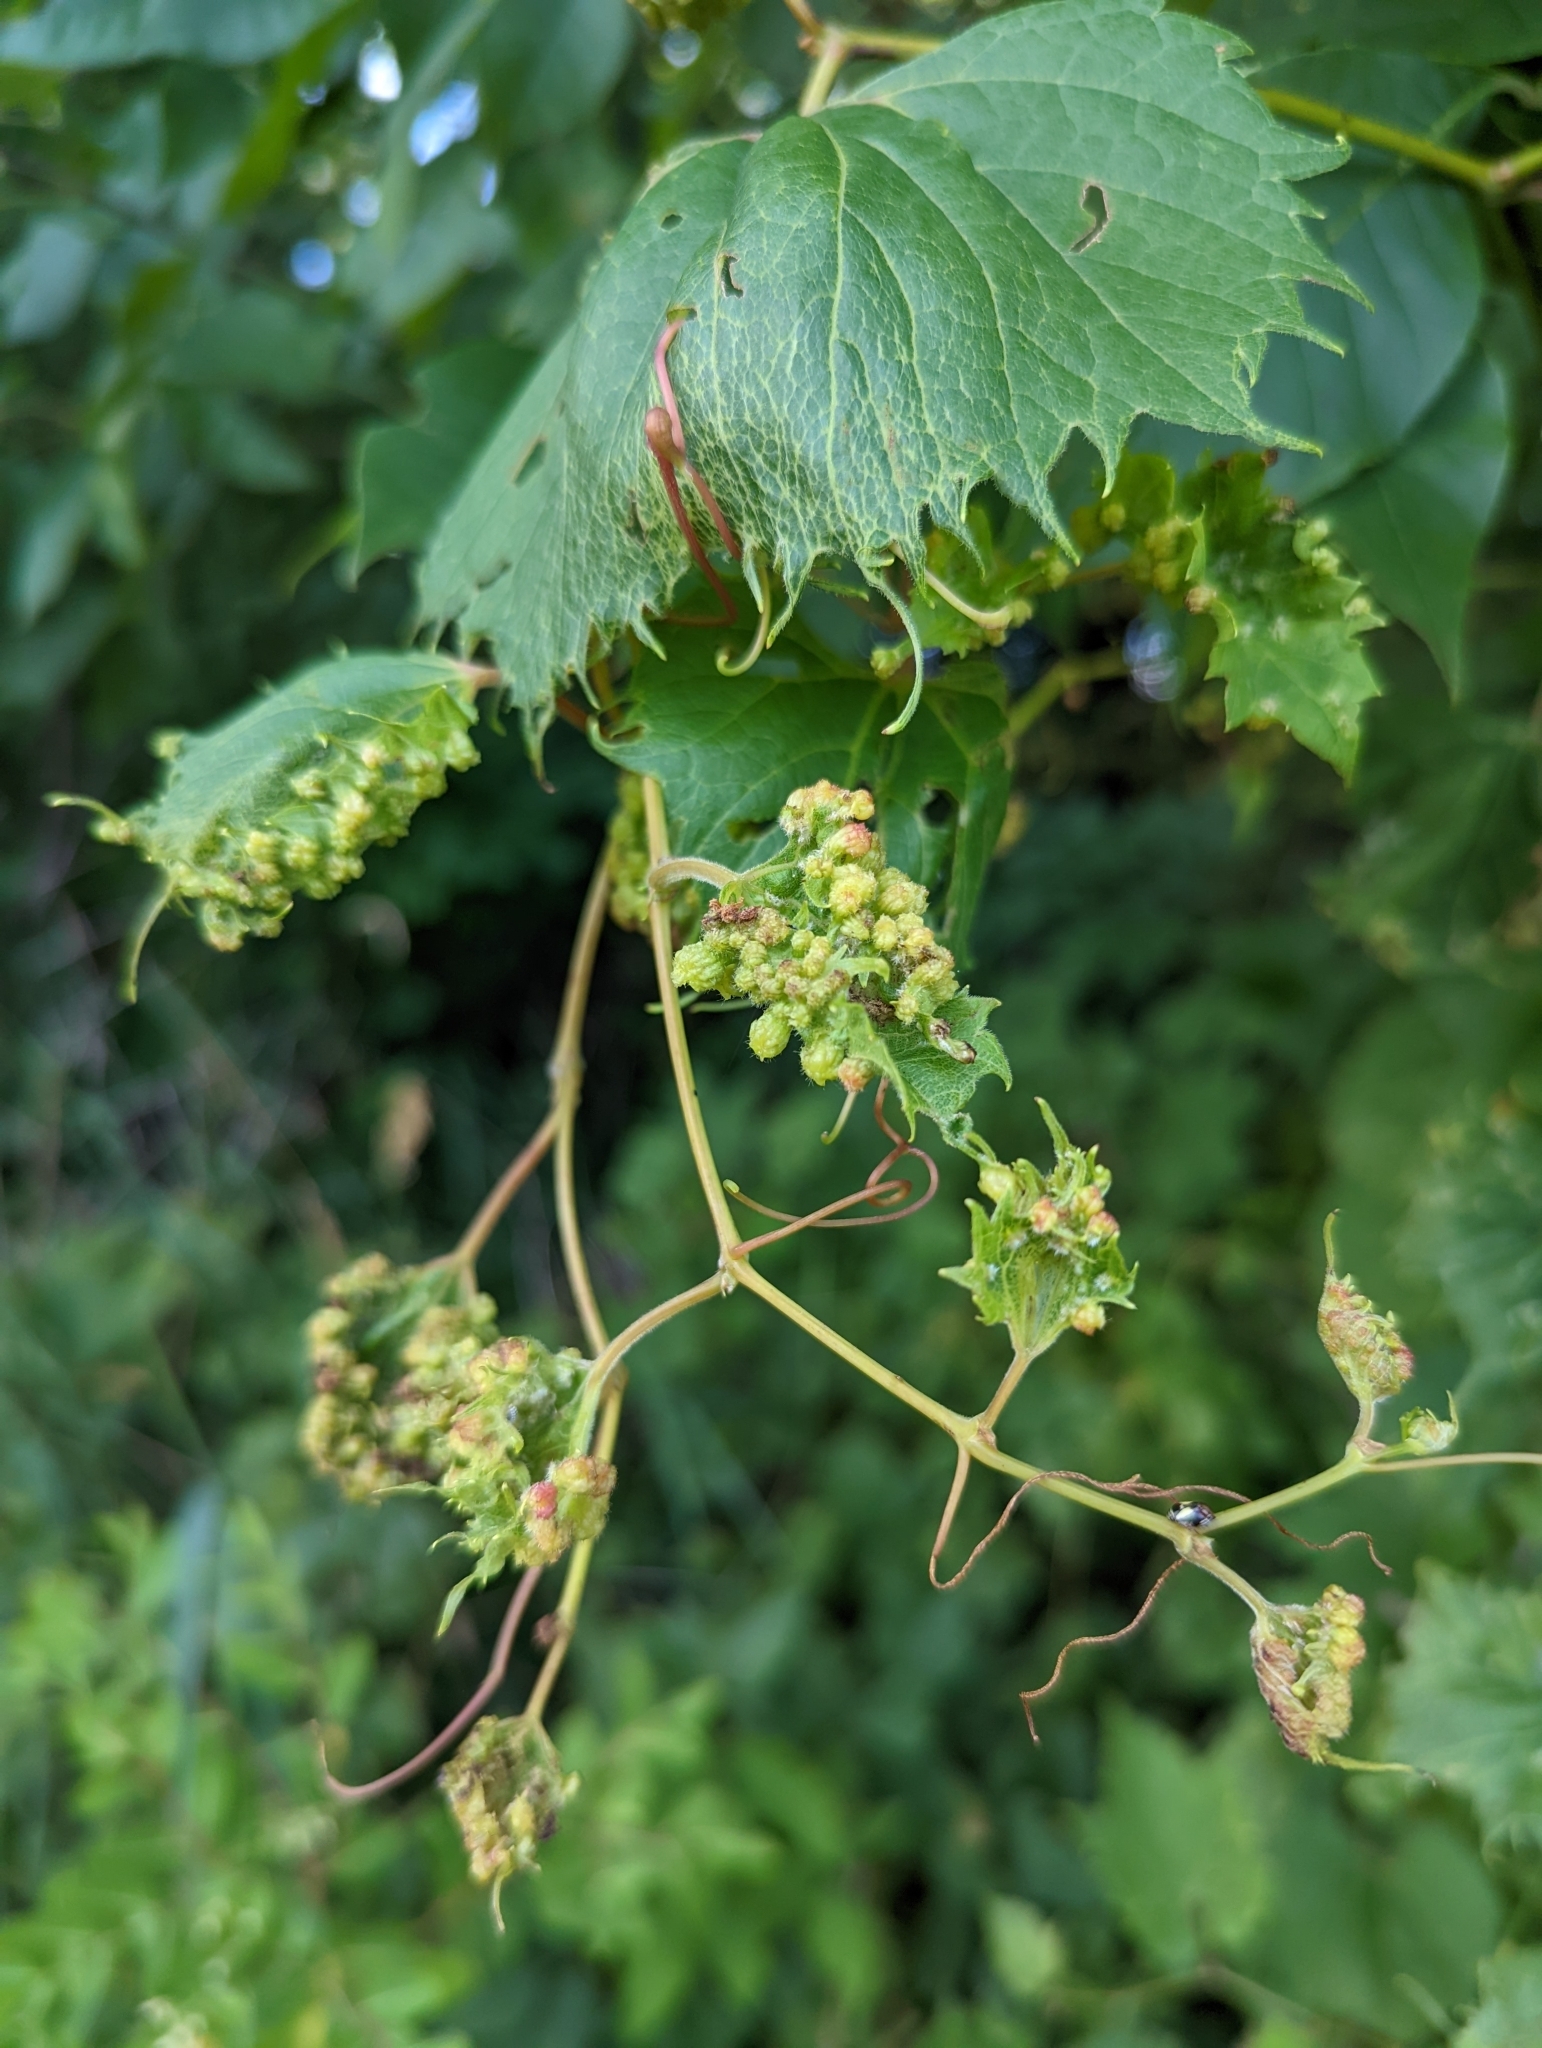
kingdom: Animalia
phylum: Arthropoda
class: Insecta
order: Hemiptera
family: Phylloxeridae
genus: Daktulosphaira
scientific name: Daktulosphaira vitifoliae
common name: Grape phylloxera
